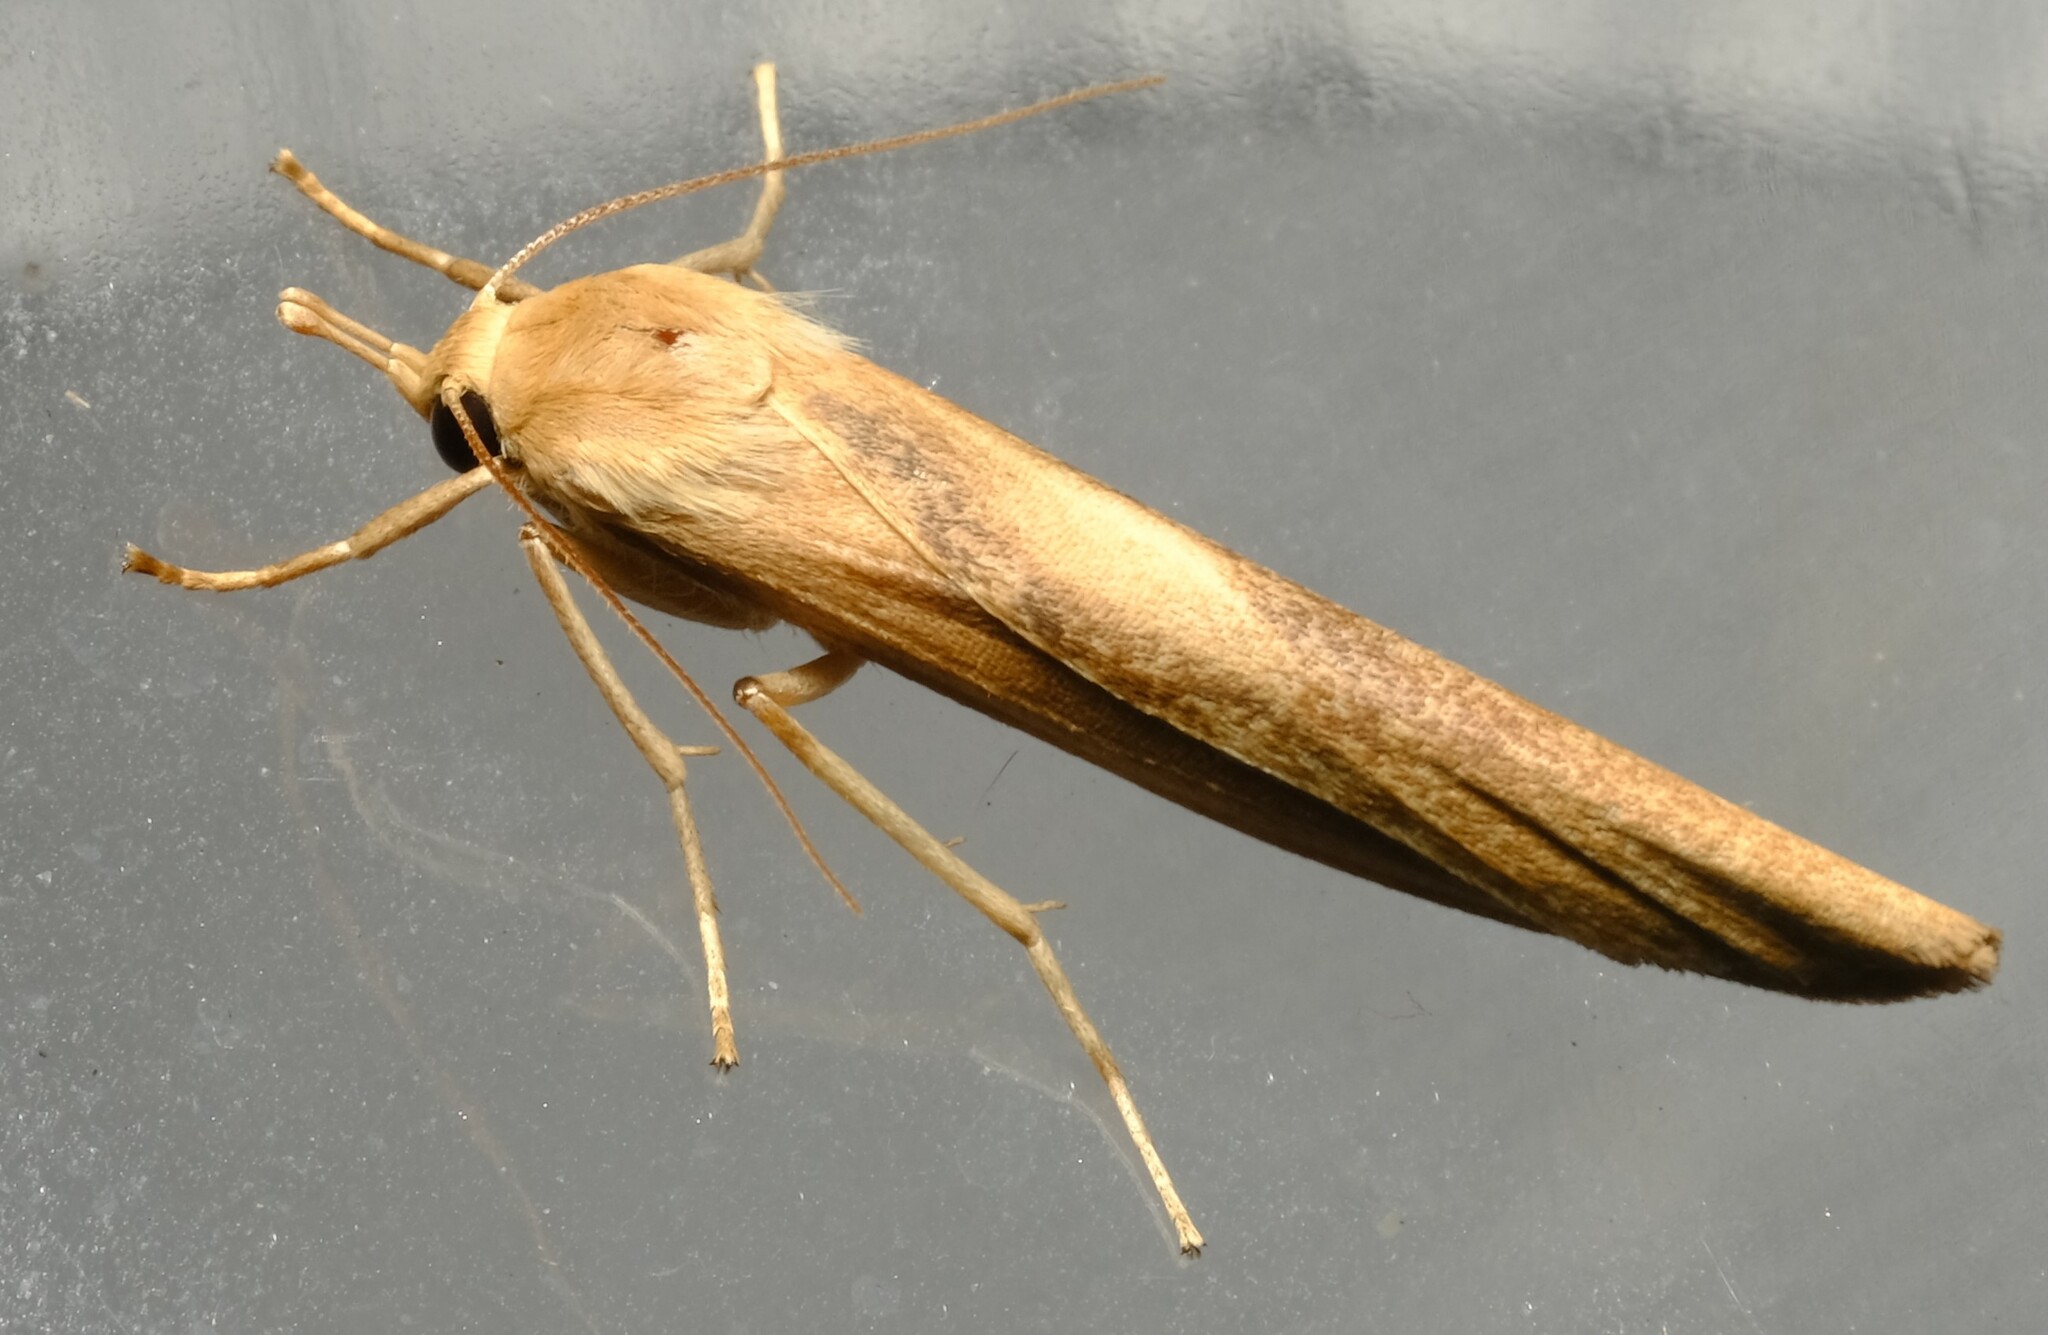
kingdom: Animalia
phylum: Arthropoda
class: Insecta
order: Lepidoptera
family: Erebidae
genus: Calamidia
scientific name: Calamidia hirta
